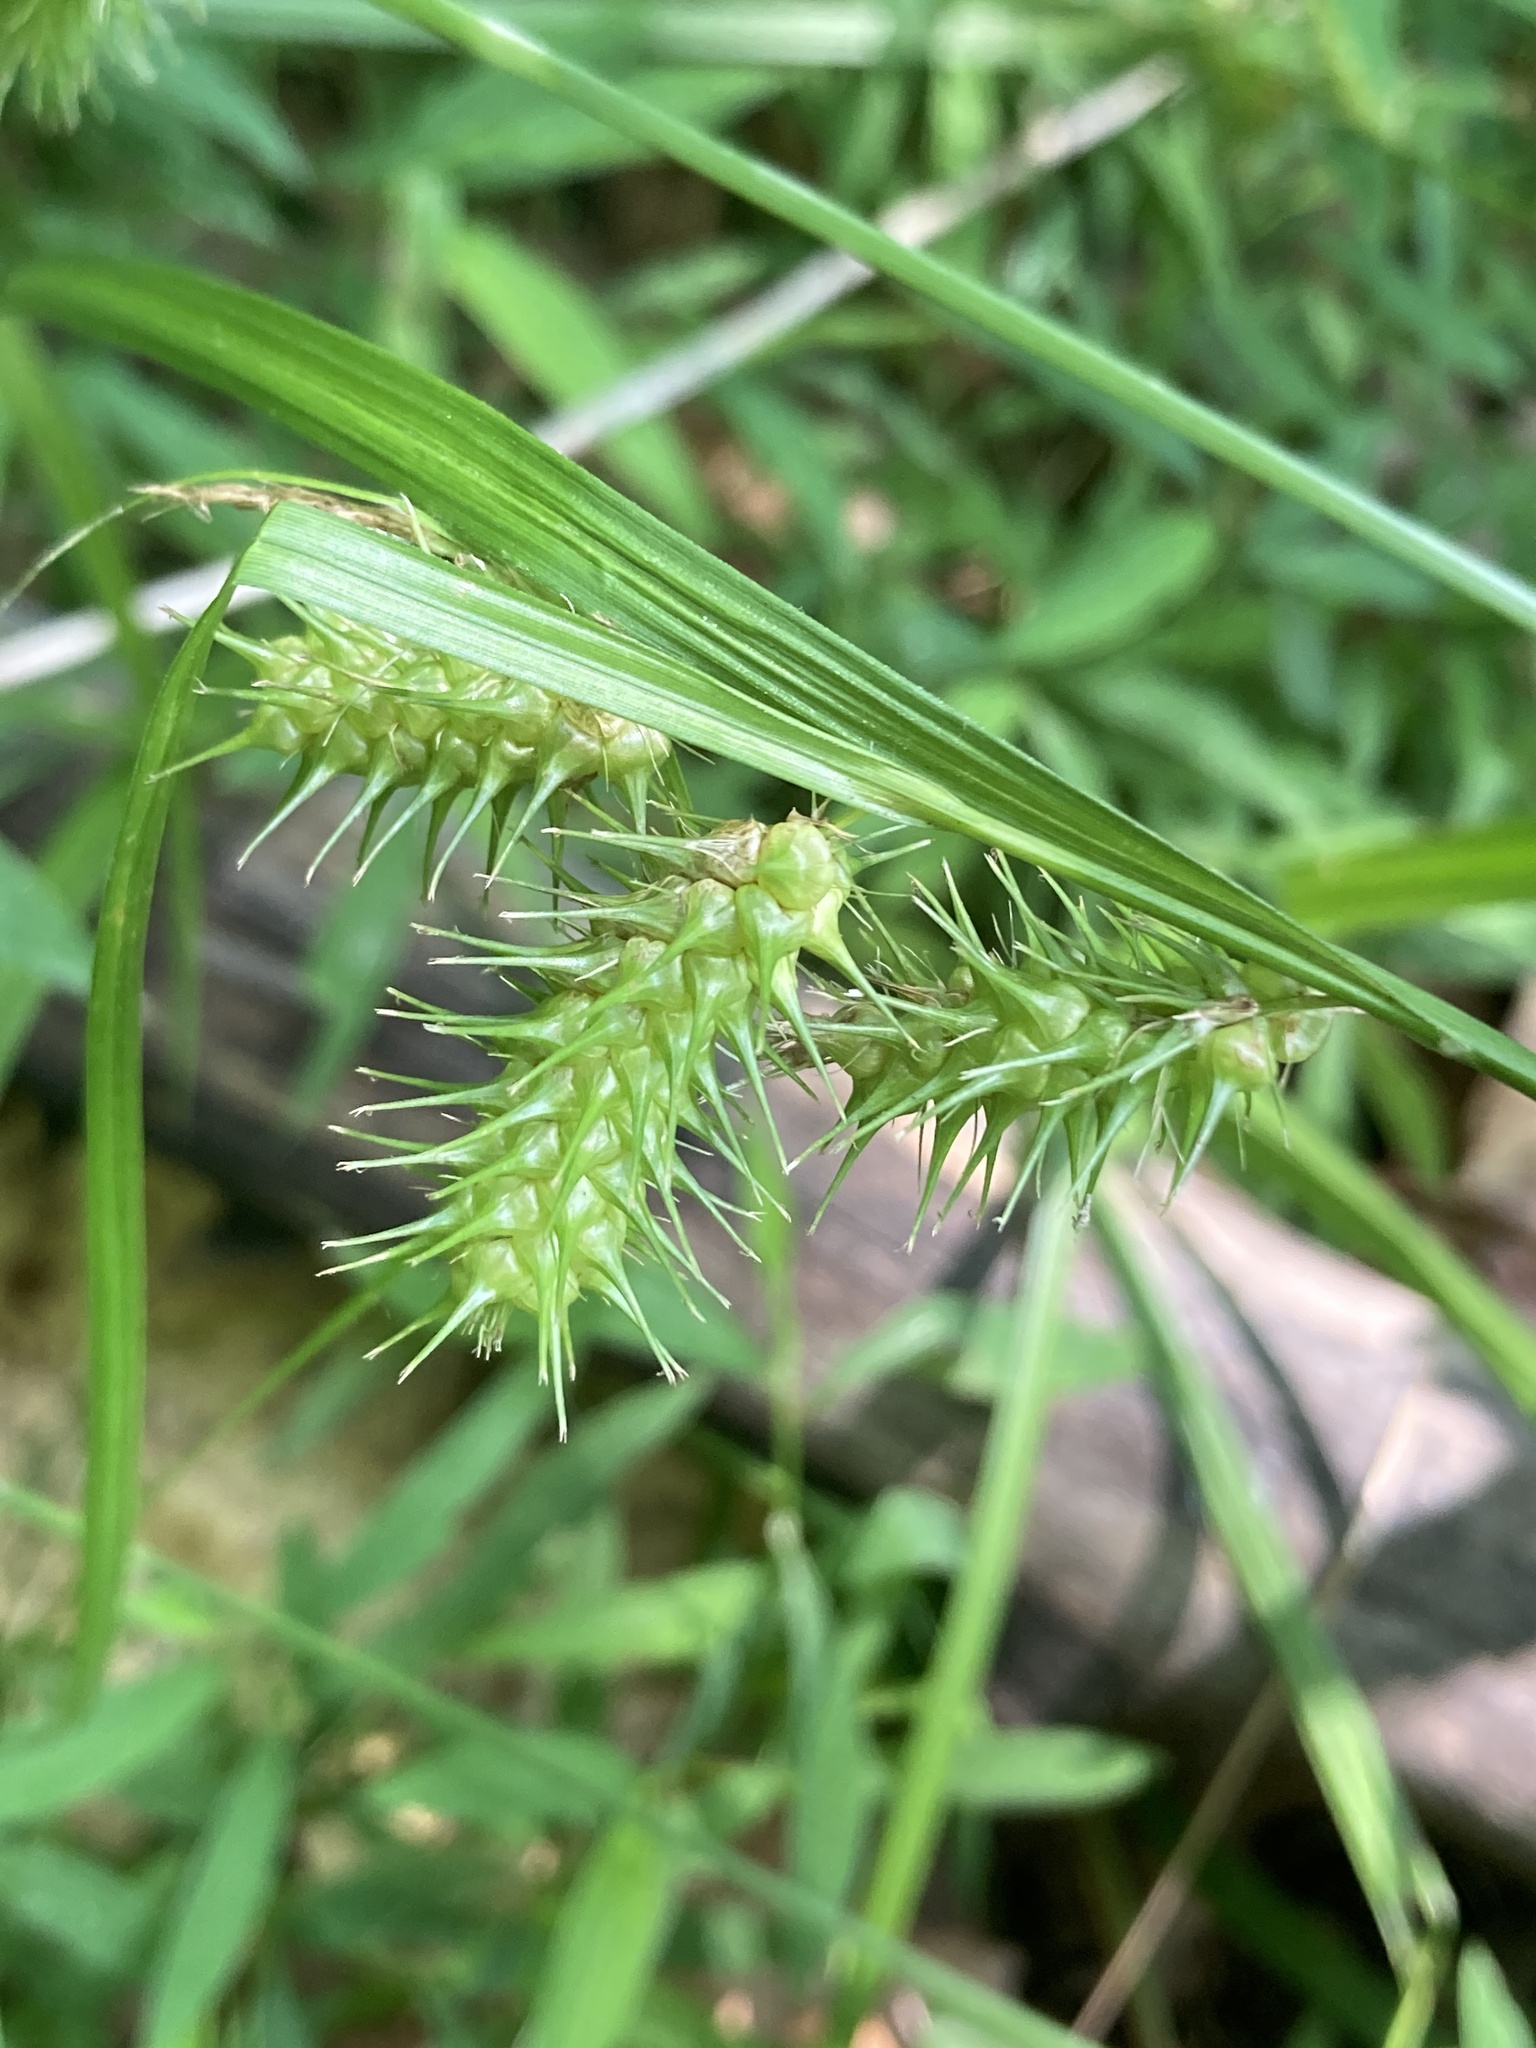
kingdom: Plantae
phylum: Tracheophyta
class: Liliopsida
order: Poales
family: Cyperaceae
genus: Carex
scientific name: Carex lurida
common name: Sallow sedge
